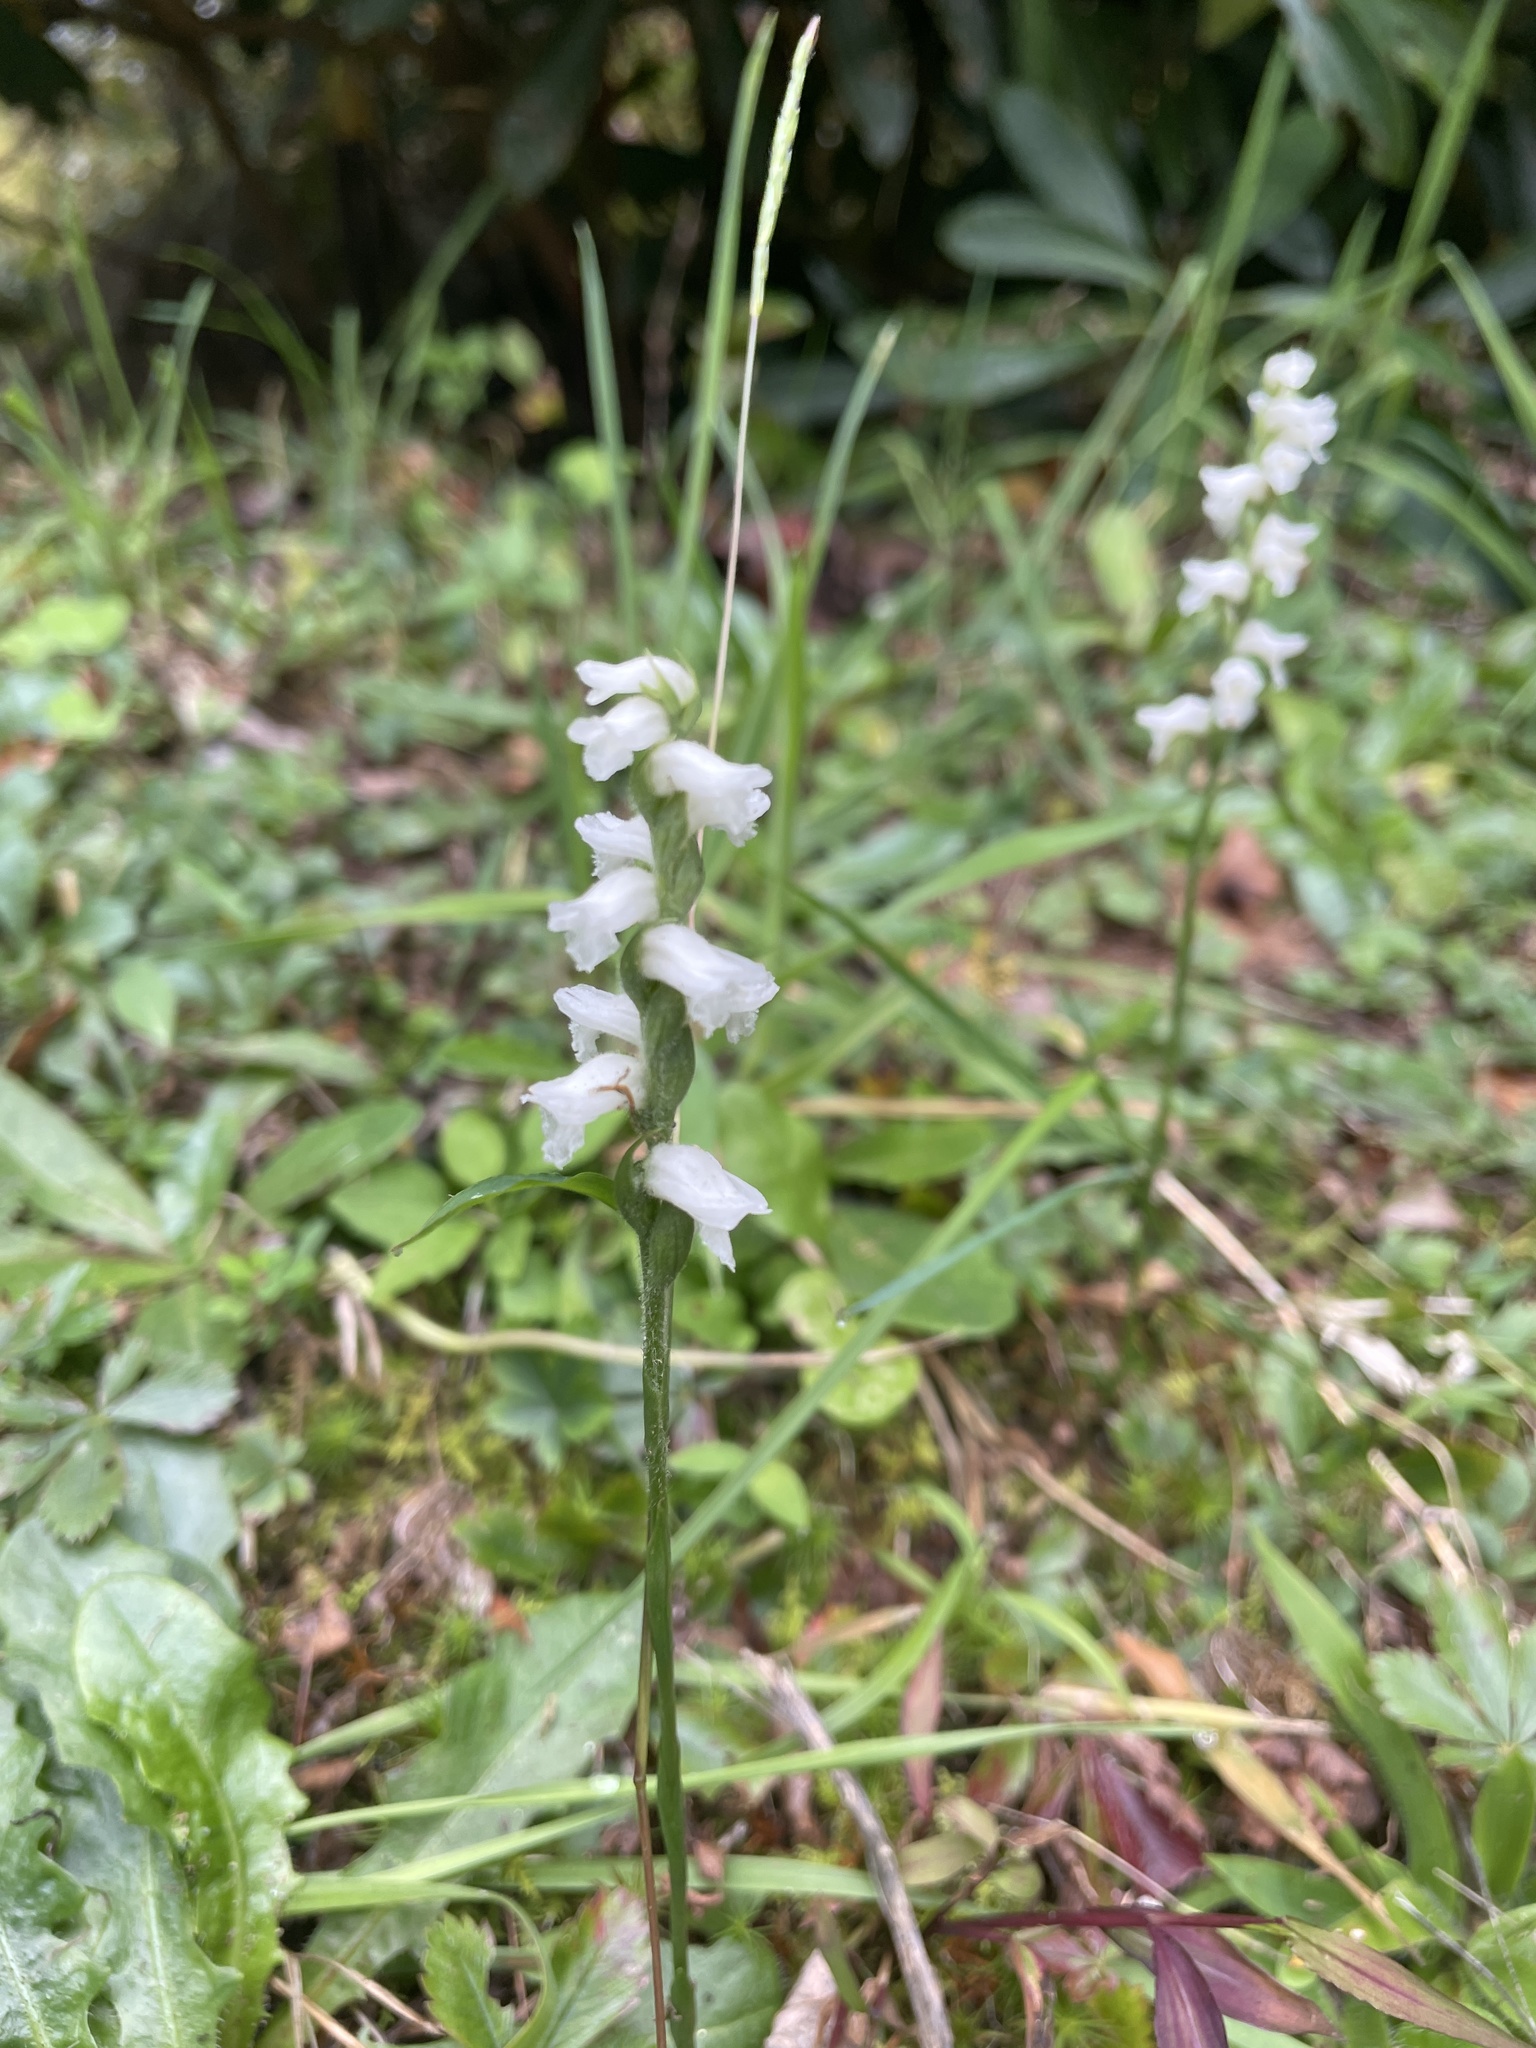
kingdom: Plantae
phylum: Tracheophyta
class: Liliopsida
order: Asparagales
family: Orchidaceae
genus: Spiranthes
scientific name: Spiranthes cernua
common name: Dropping ladies'-tresses
